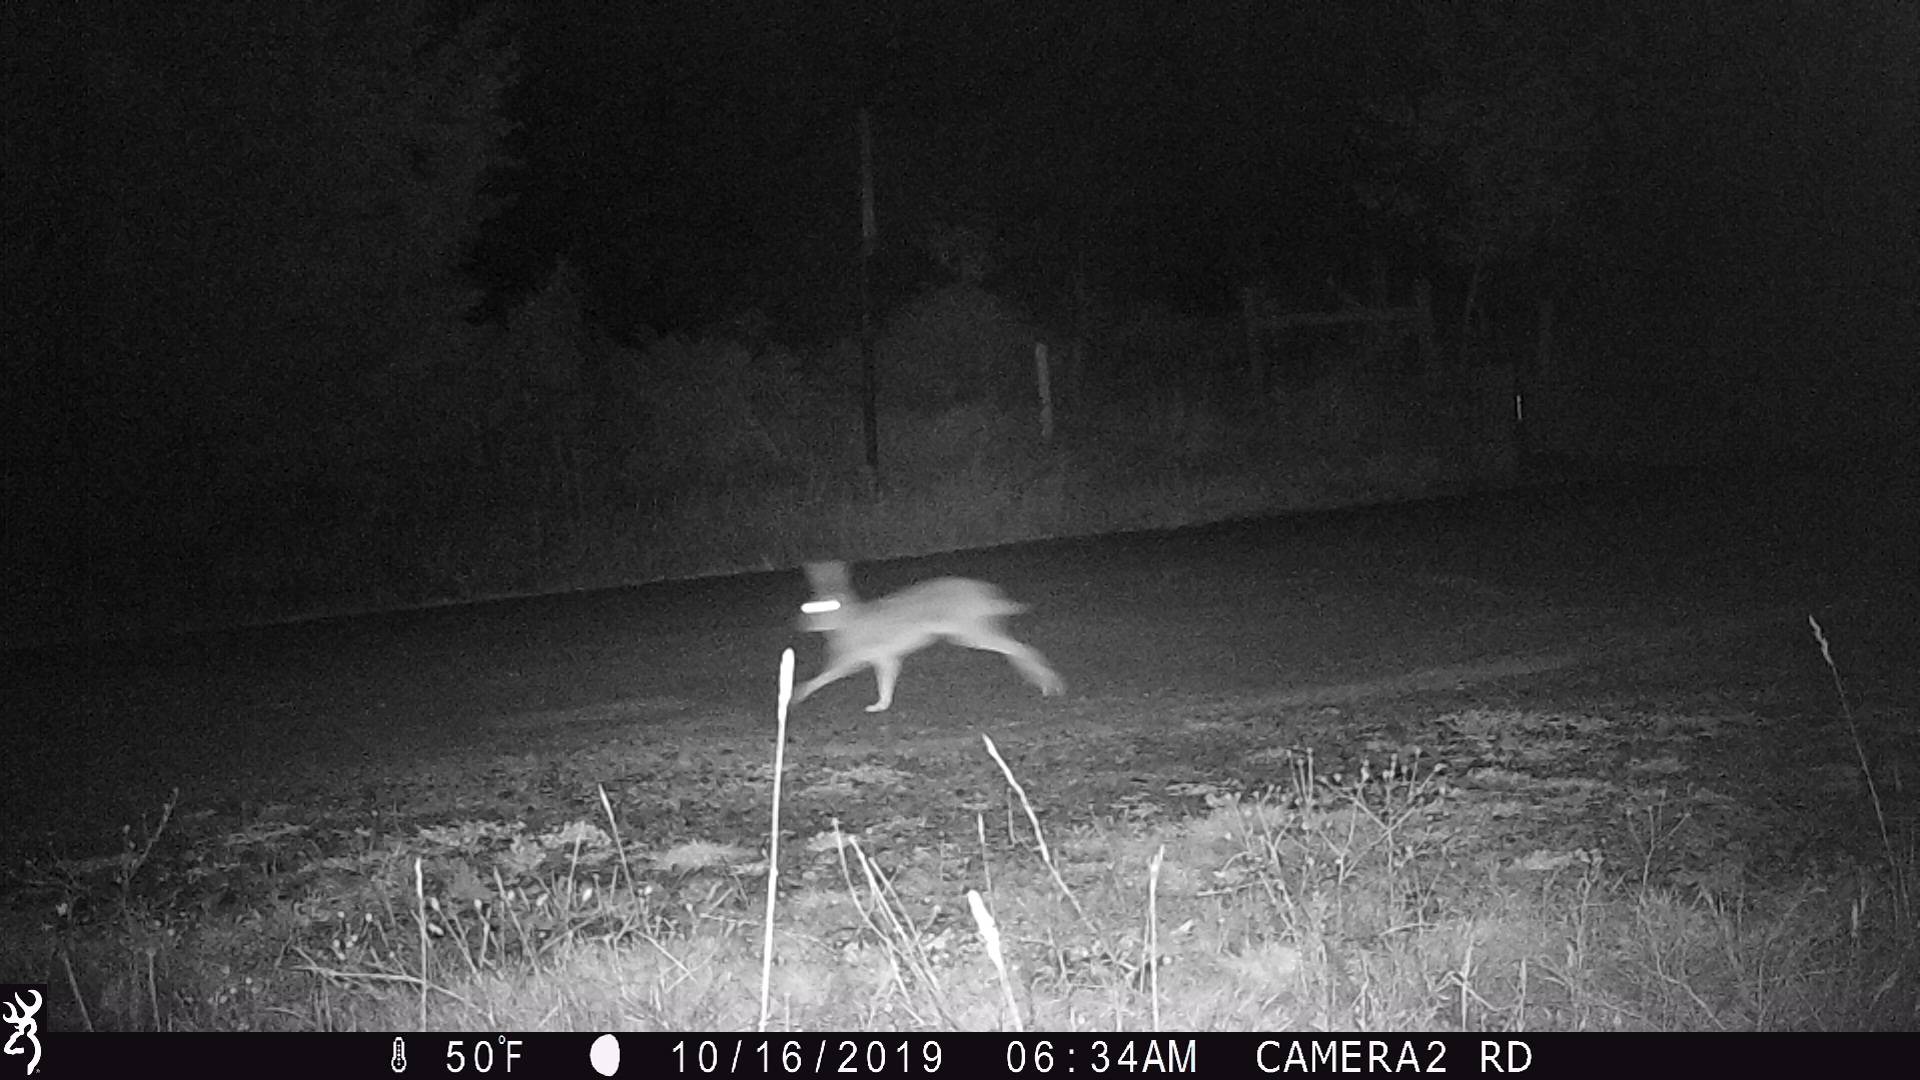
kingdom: Animalia
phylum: Chordata
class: Mammalia
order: Lagomorpha
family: Leporidae
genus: Lepus
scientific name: Lepus californicus
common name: Black-tailed jackrabbit
